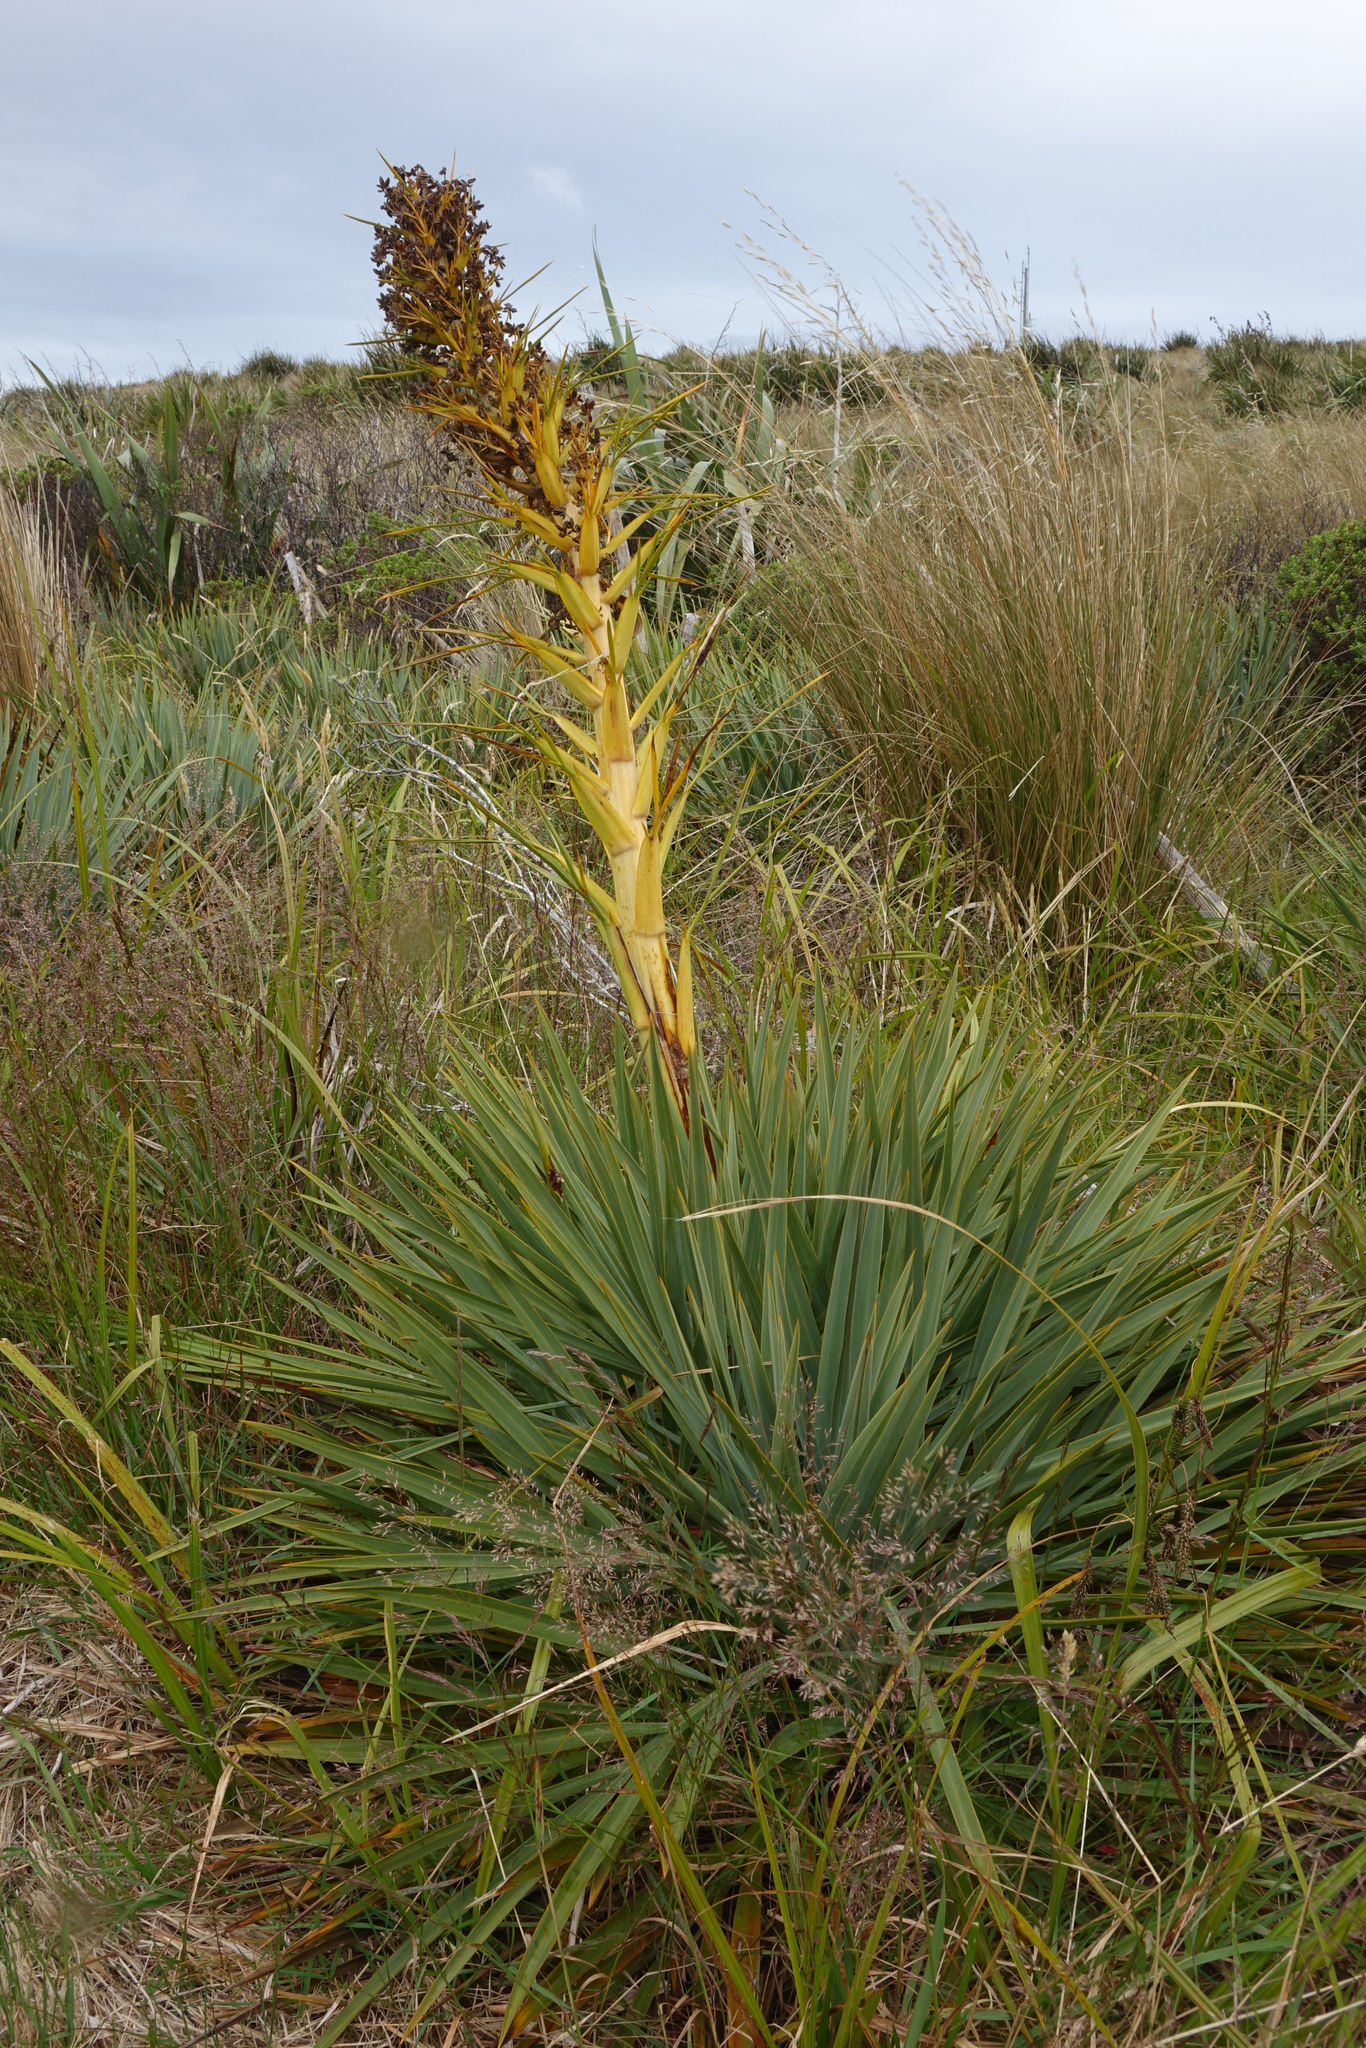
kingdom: Plantae
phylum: Tracheophyta
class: Magnoliopsida
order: Apiales
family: Apiaceae
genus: Aciphylla
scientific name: Aciphylla scott-thomsonii
